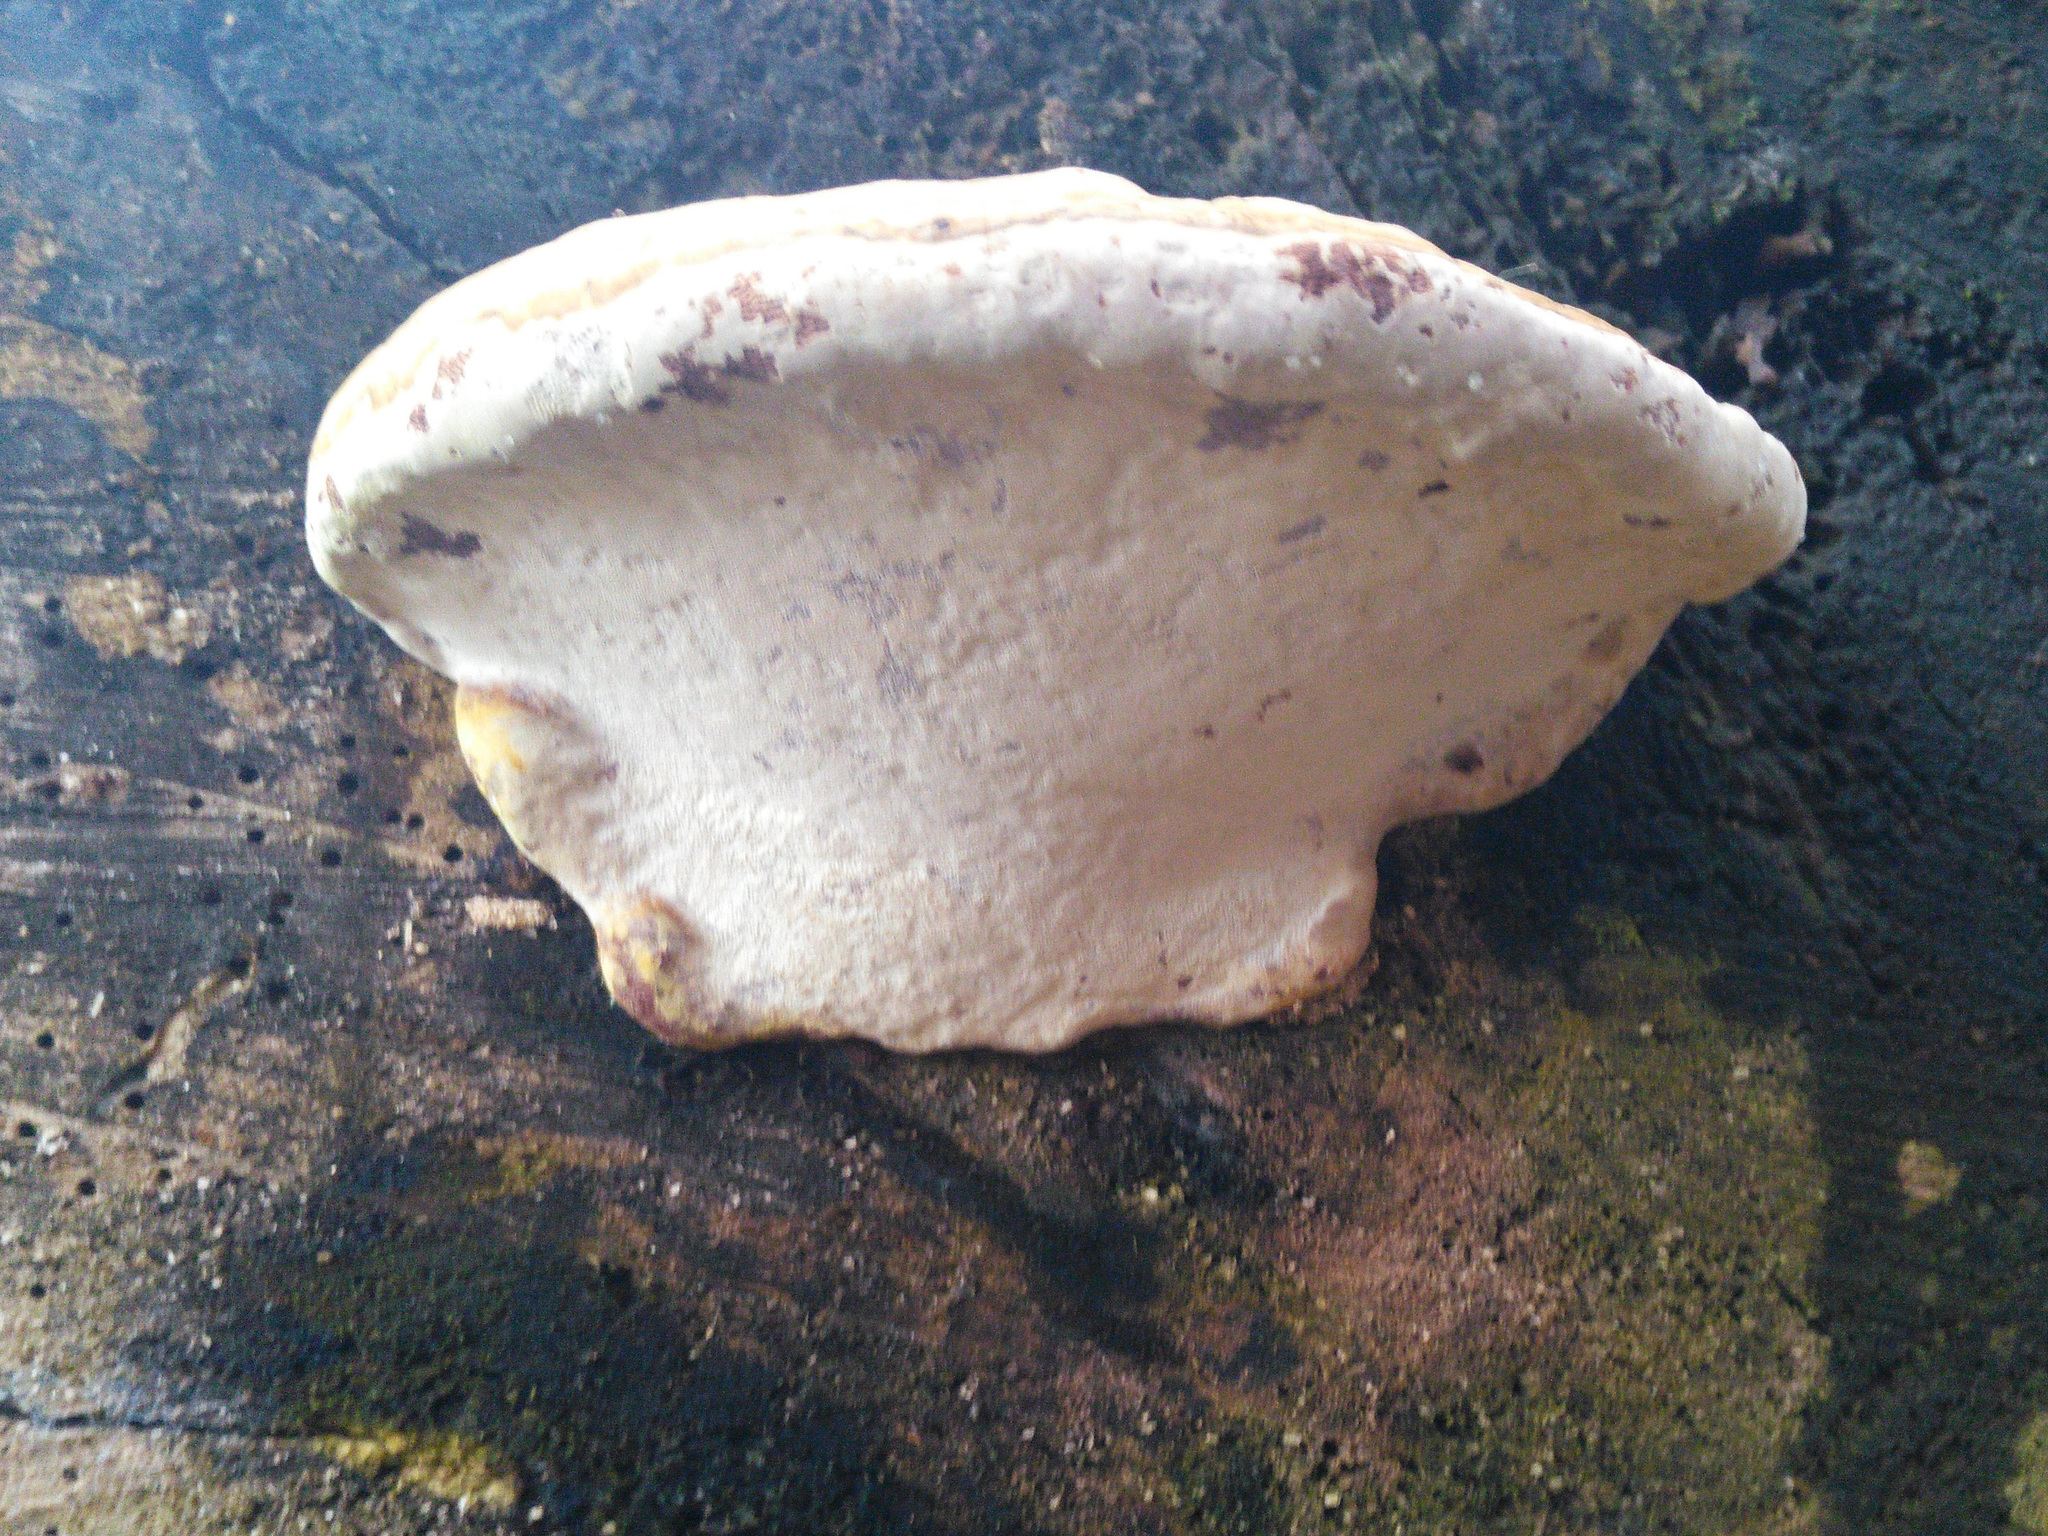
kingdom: Fungi
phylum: Basidiomycota
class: Agaricomycetes
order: Polyporales
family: Polyporaceae
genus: Ganoderma
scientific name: Ganoderma applanatum
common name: Artist's bracket
